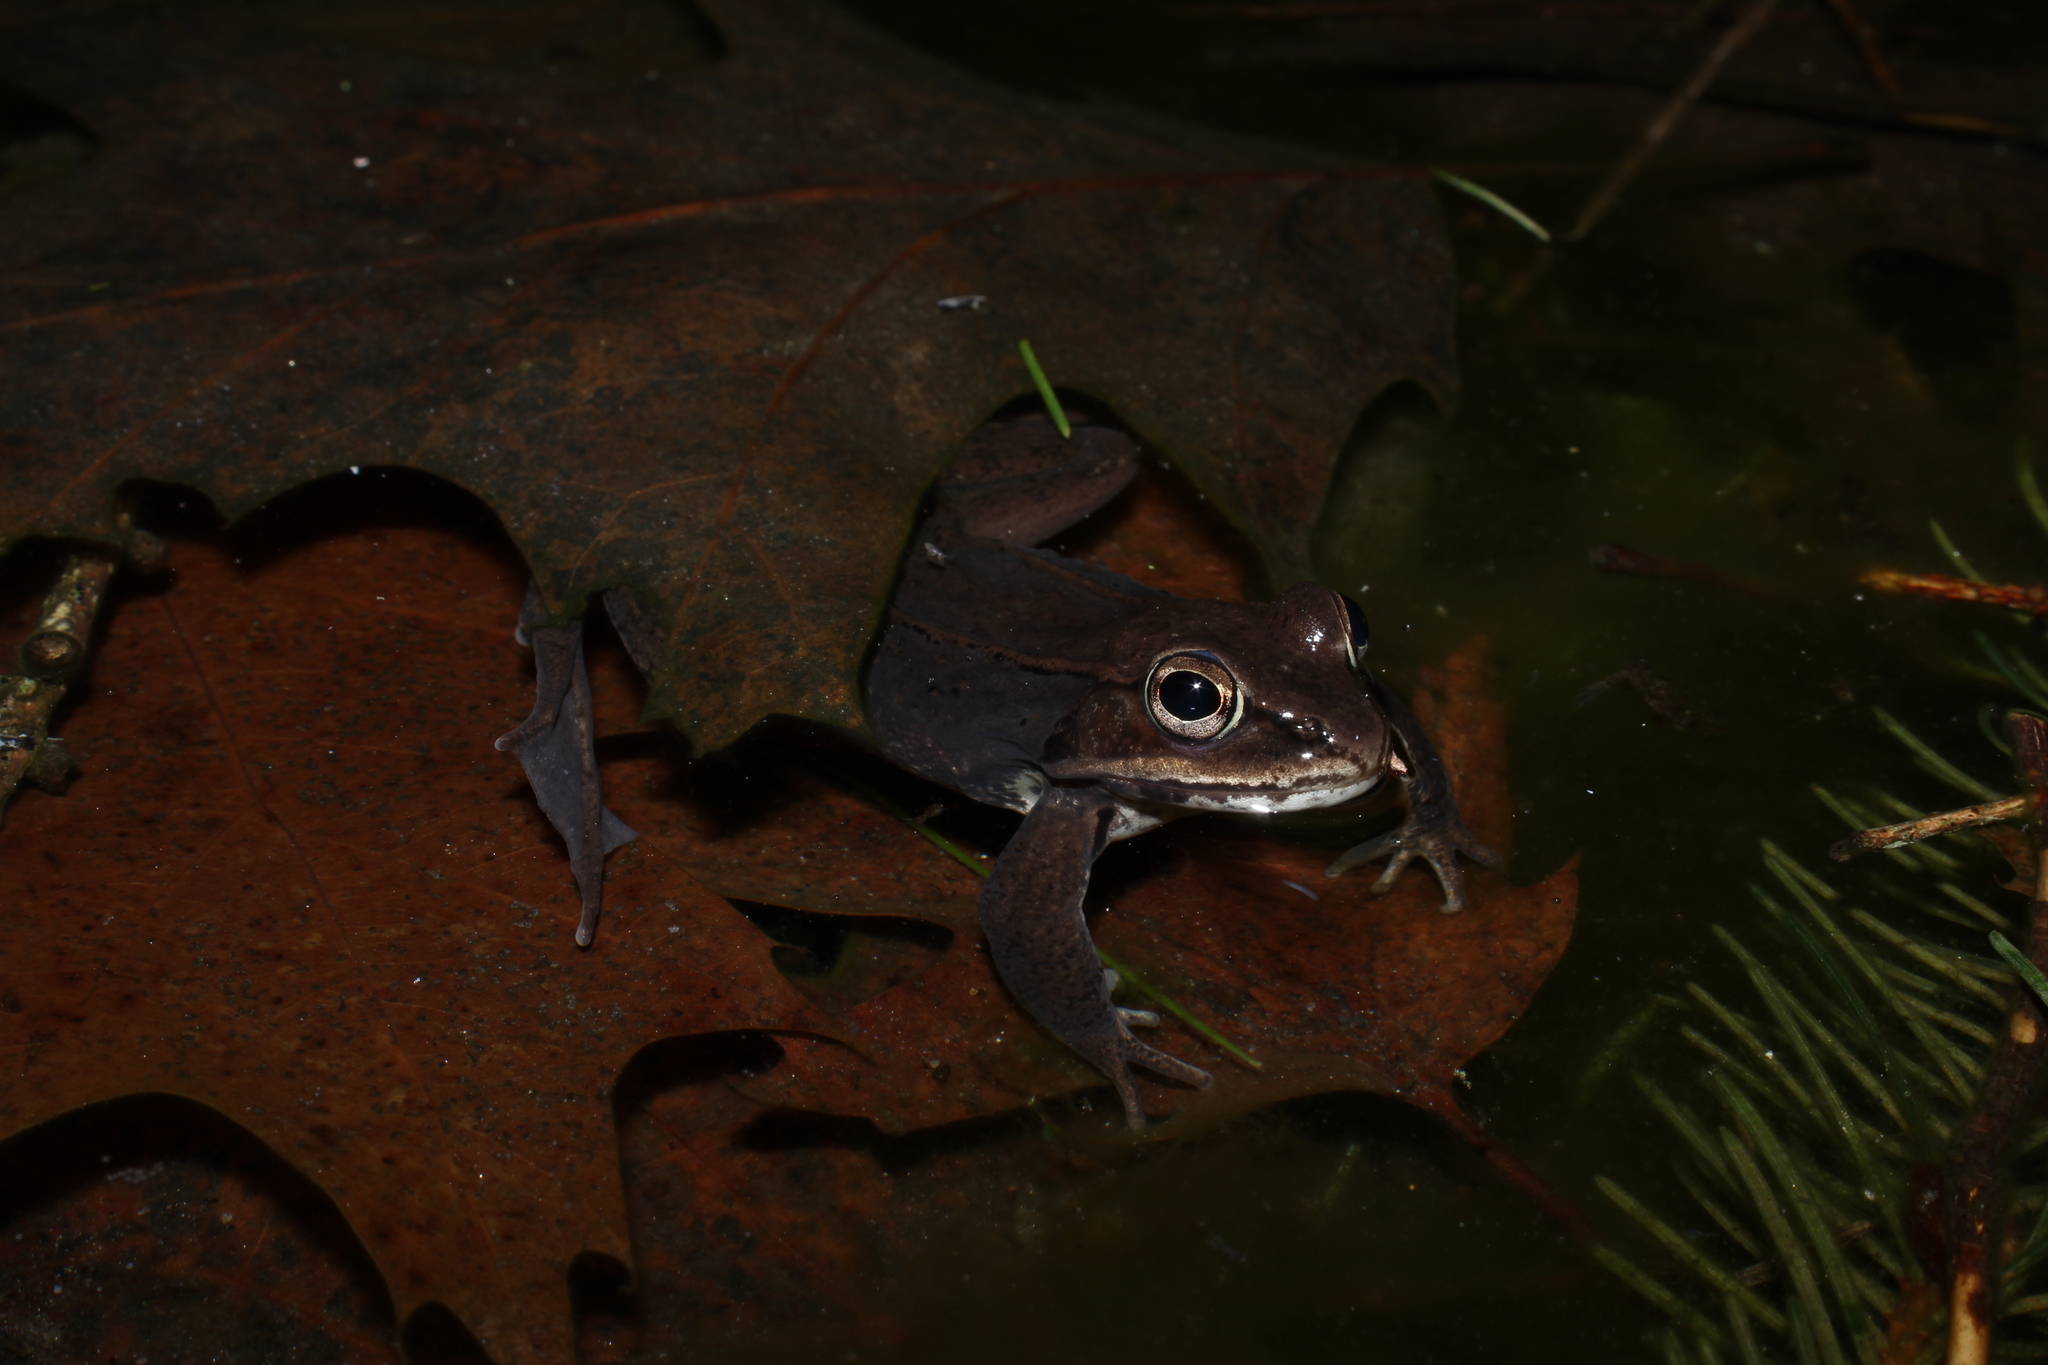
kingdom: Animalia
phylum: Chordata
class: Amphibia
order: Anura
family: Ranidae
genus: Lithobates
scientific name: Lithobates sylvaticus
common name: Wood frog
